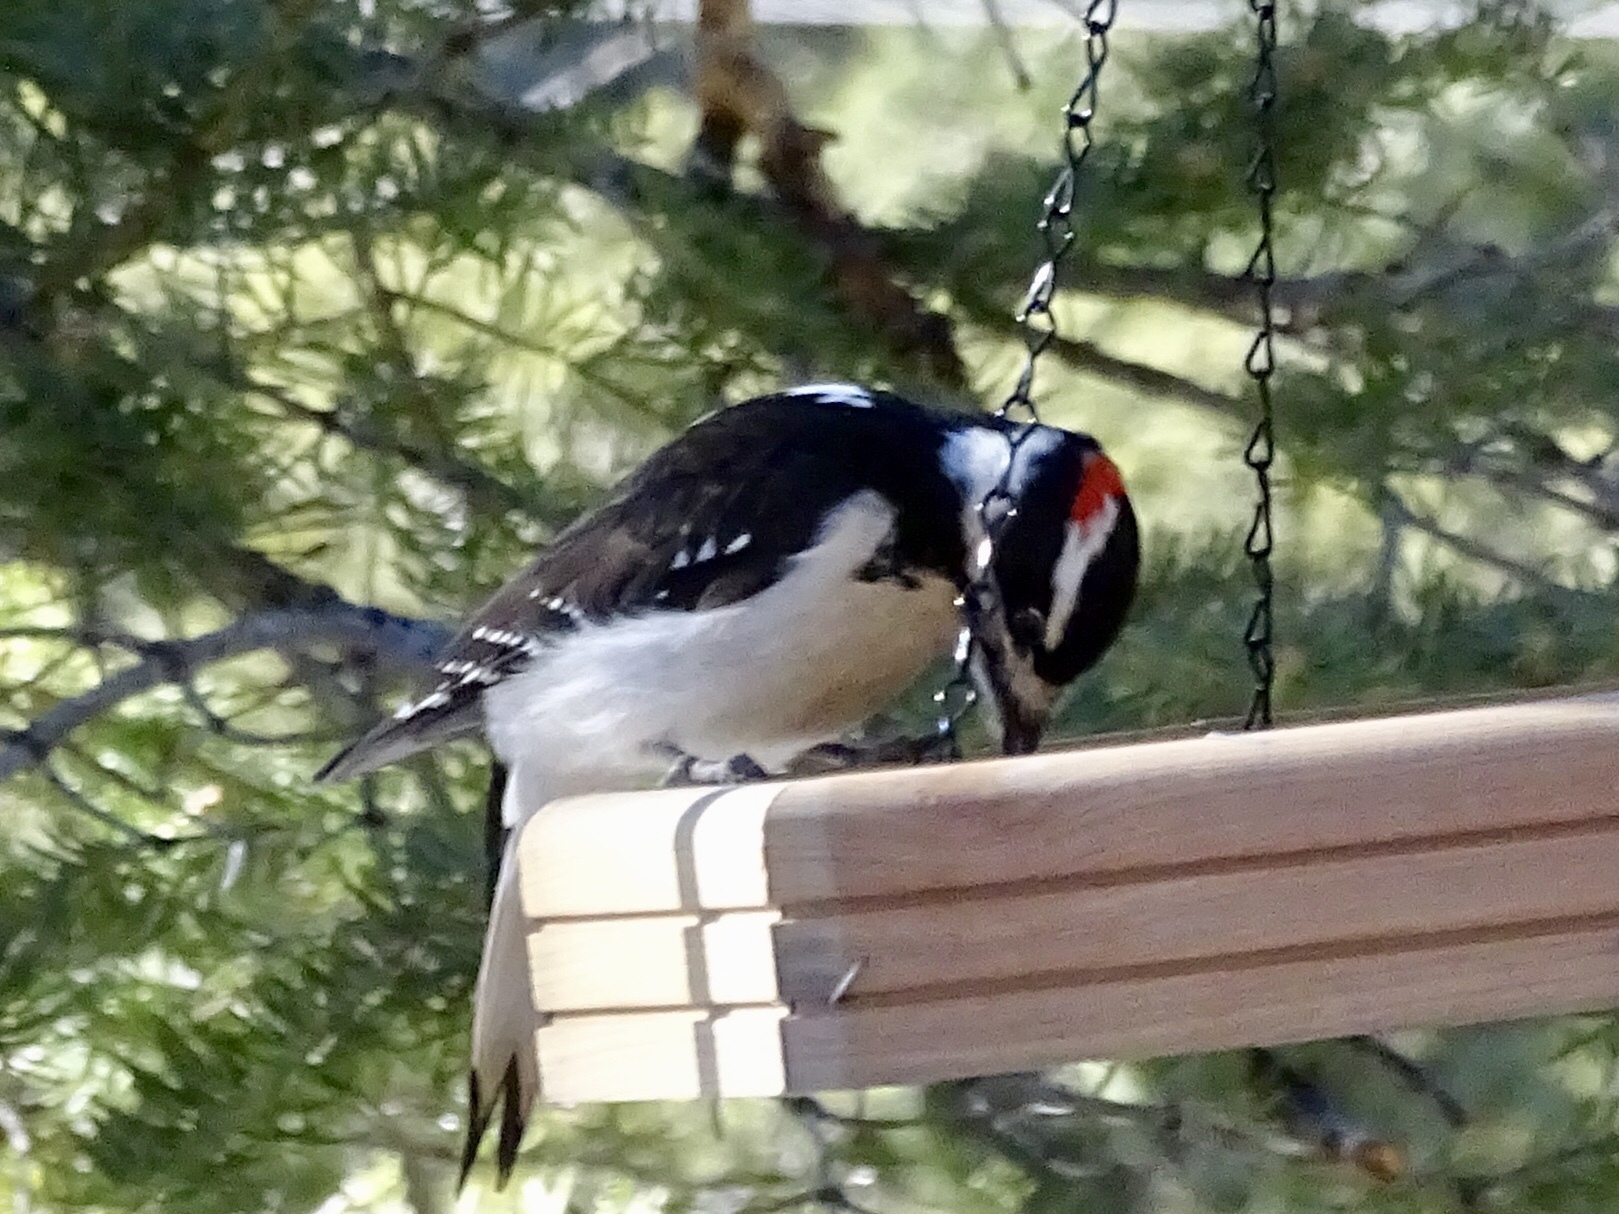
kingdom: Animalia
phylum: Chordata
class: Aves
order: Piciformes
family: Picidae
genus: Leuconotopicus
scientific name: Leuconotopicus villosus
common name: Hairy woodpecker
